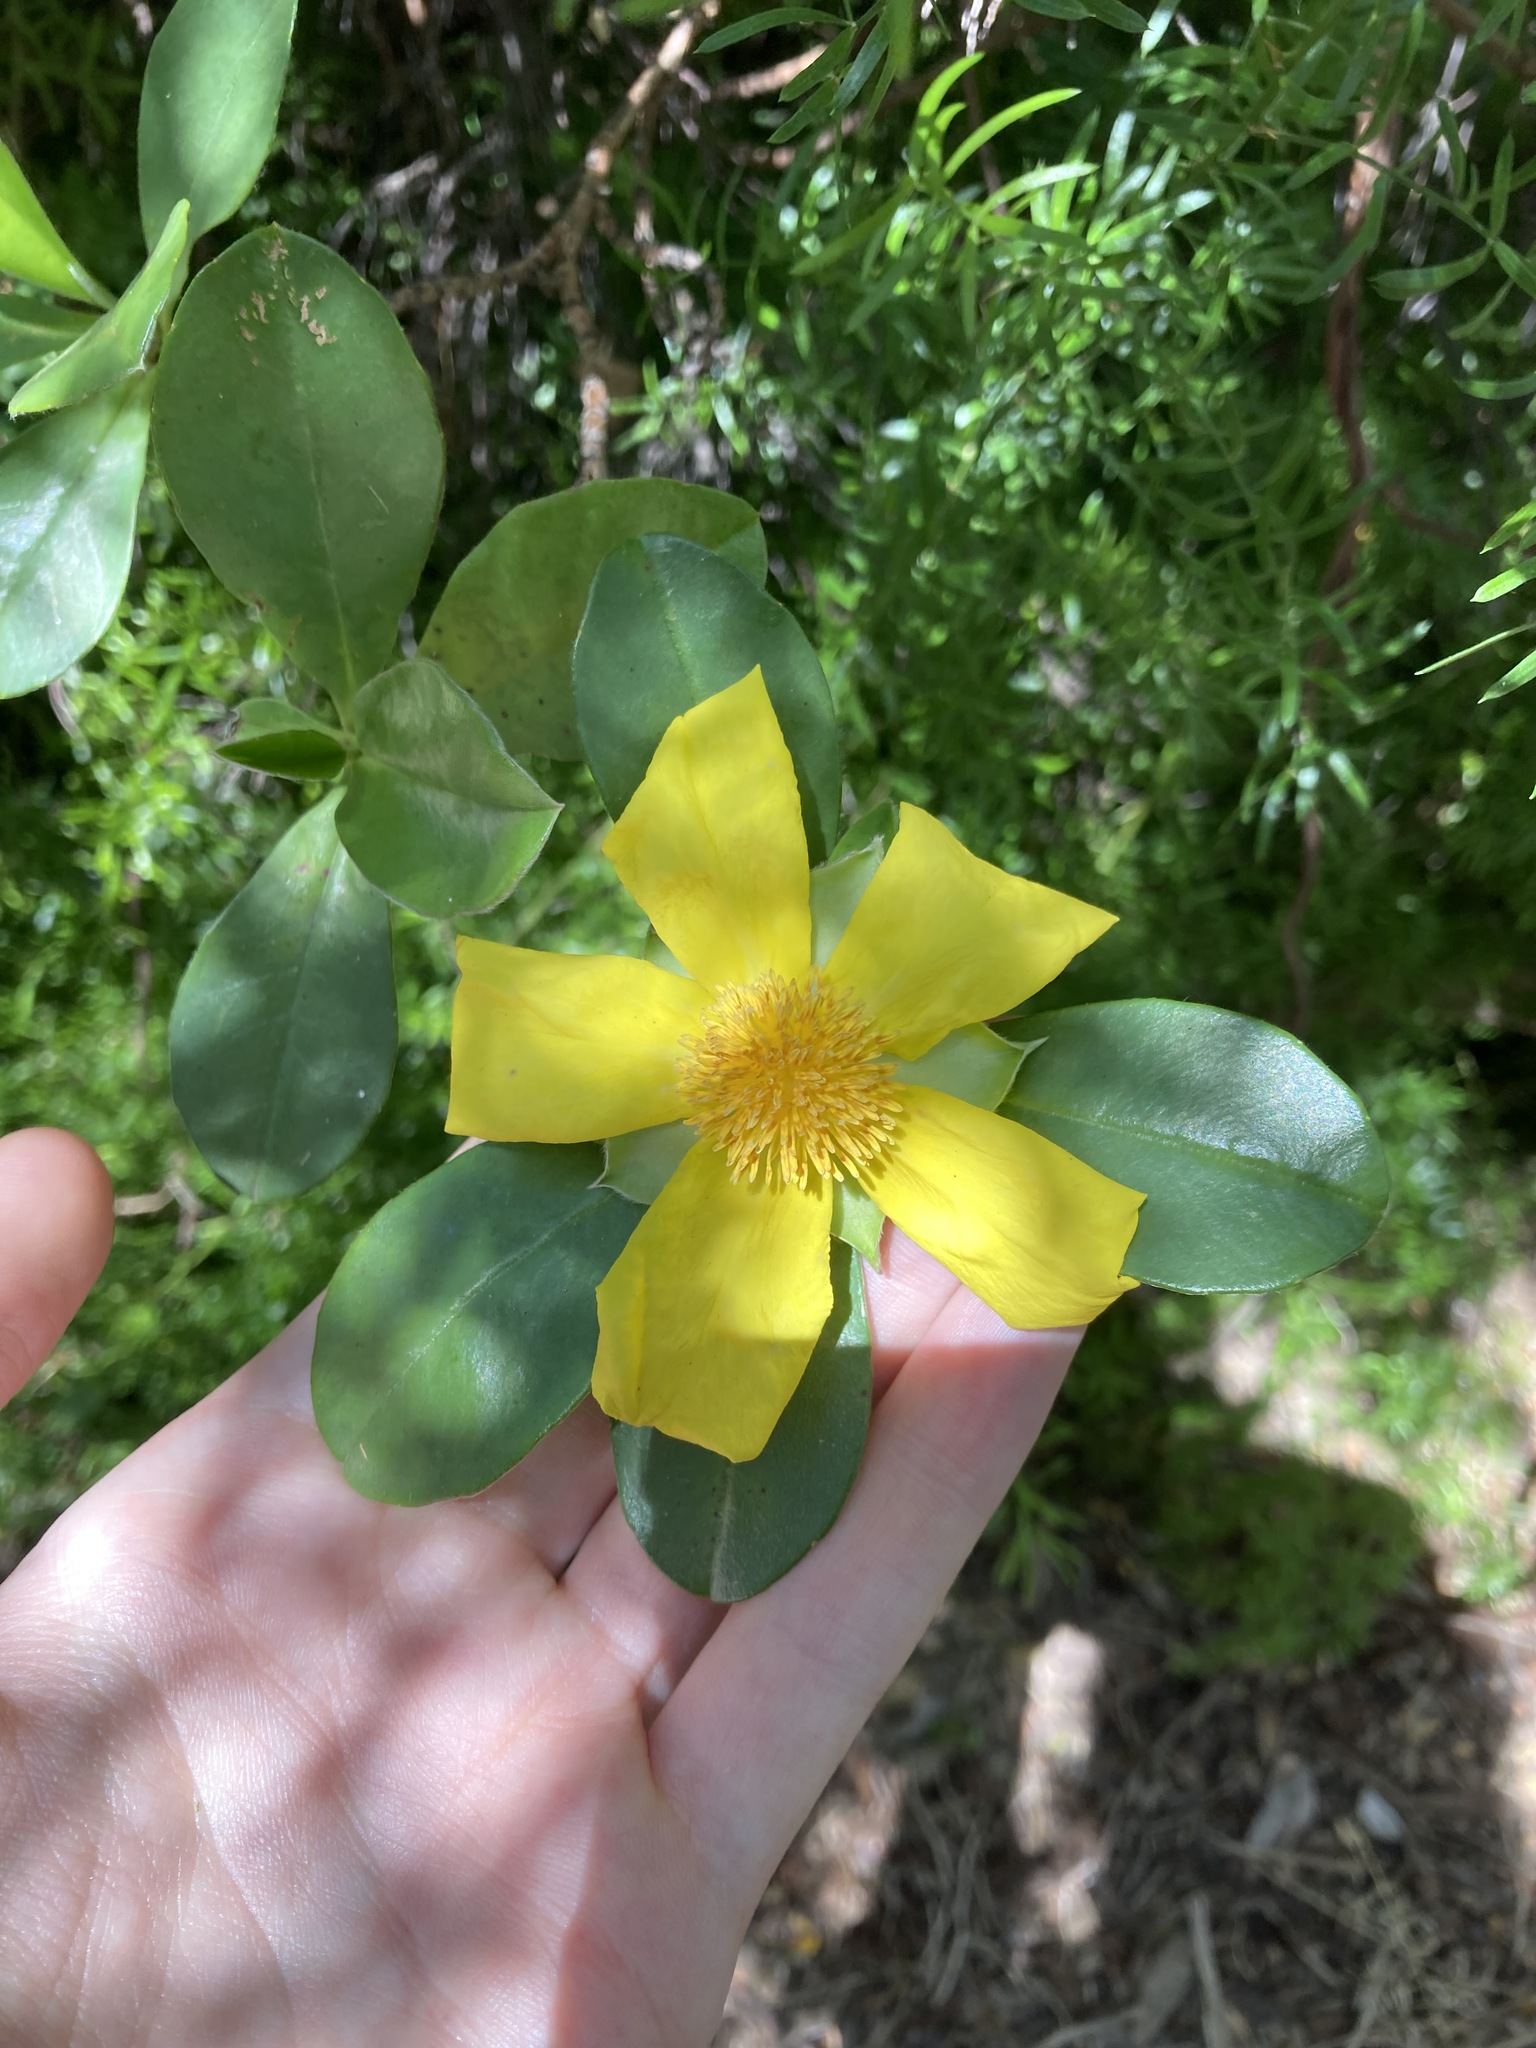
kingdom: Plantae
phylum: Tracheophyta
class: Magnoliopsida
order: Dilleniales
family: Dilleniaceae
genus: Hibbertia
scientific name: Hibbertia scandens
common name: Climbing guinea-flower
